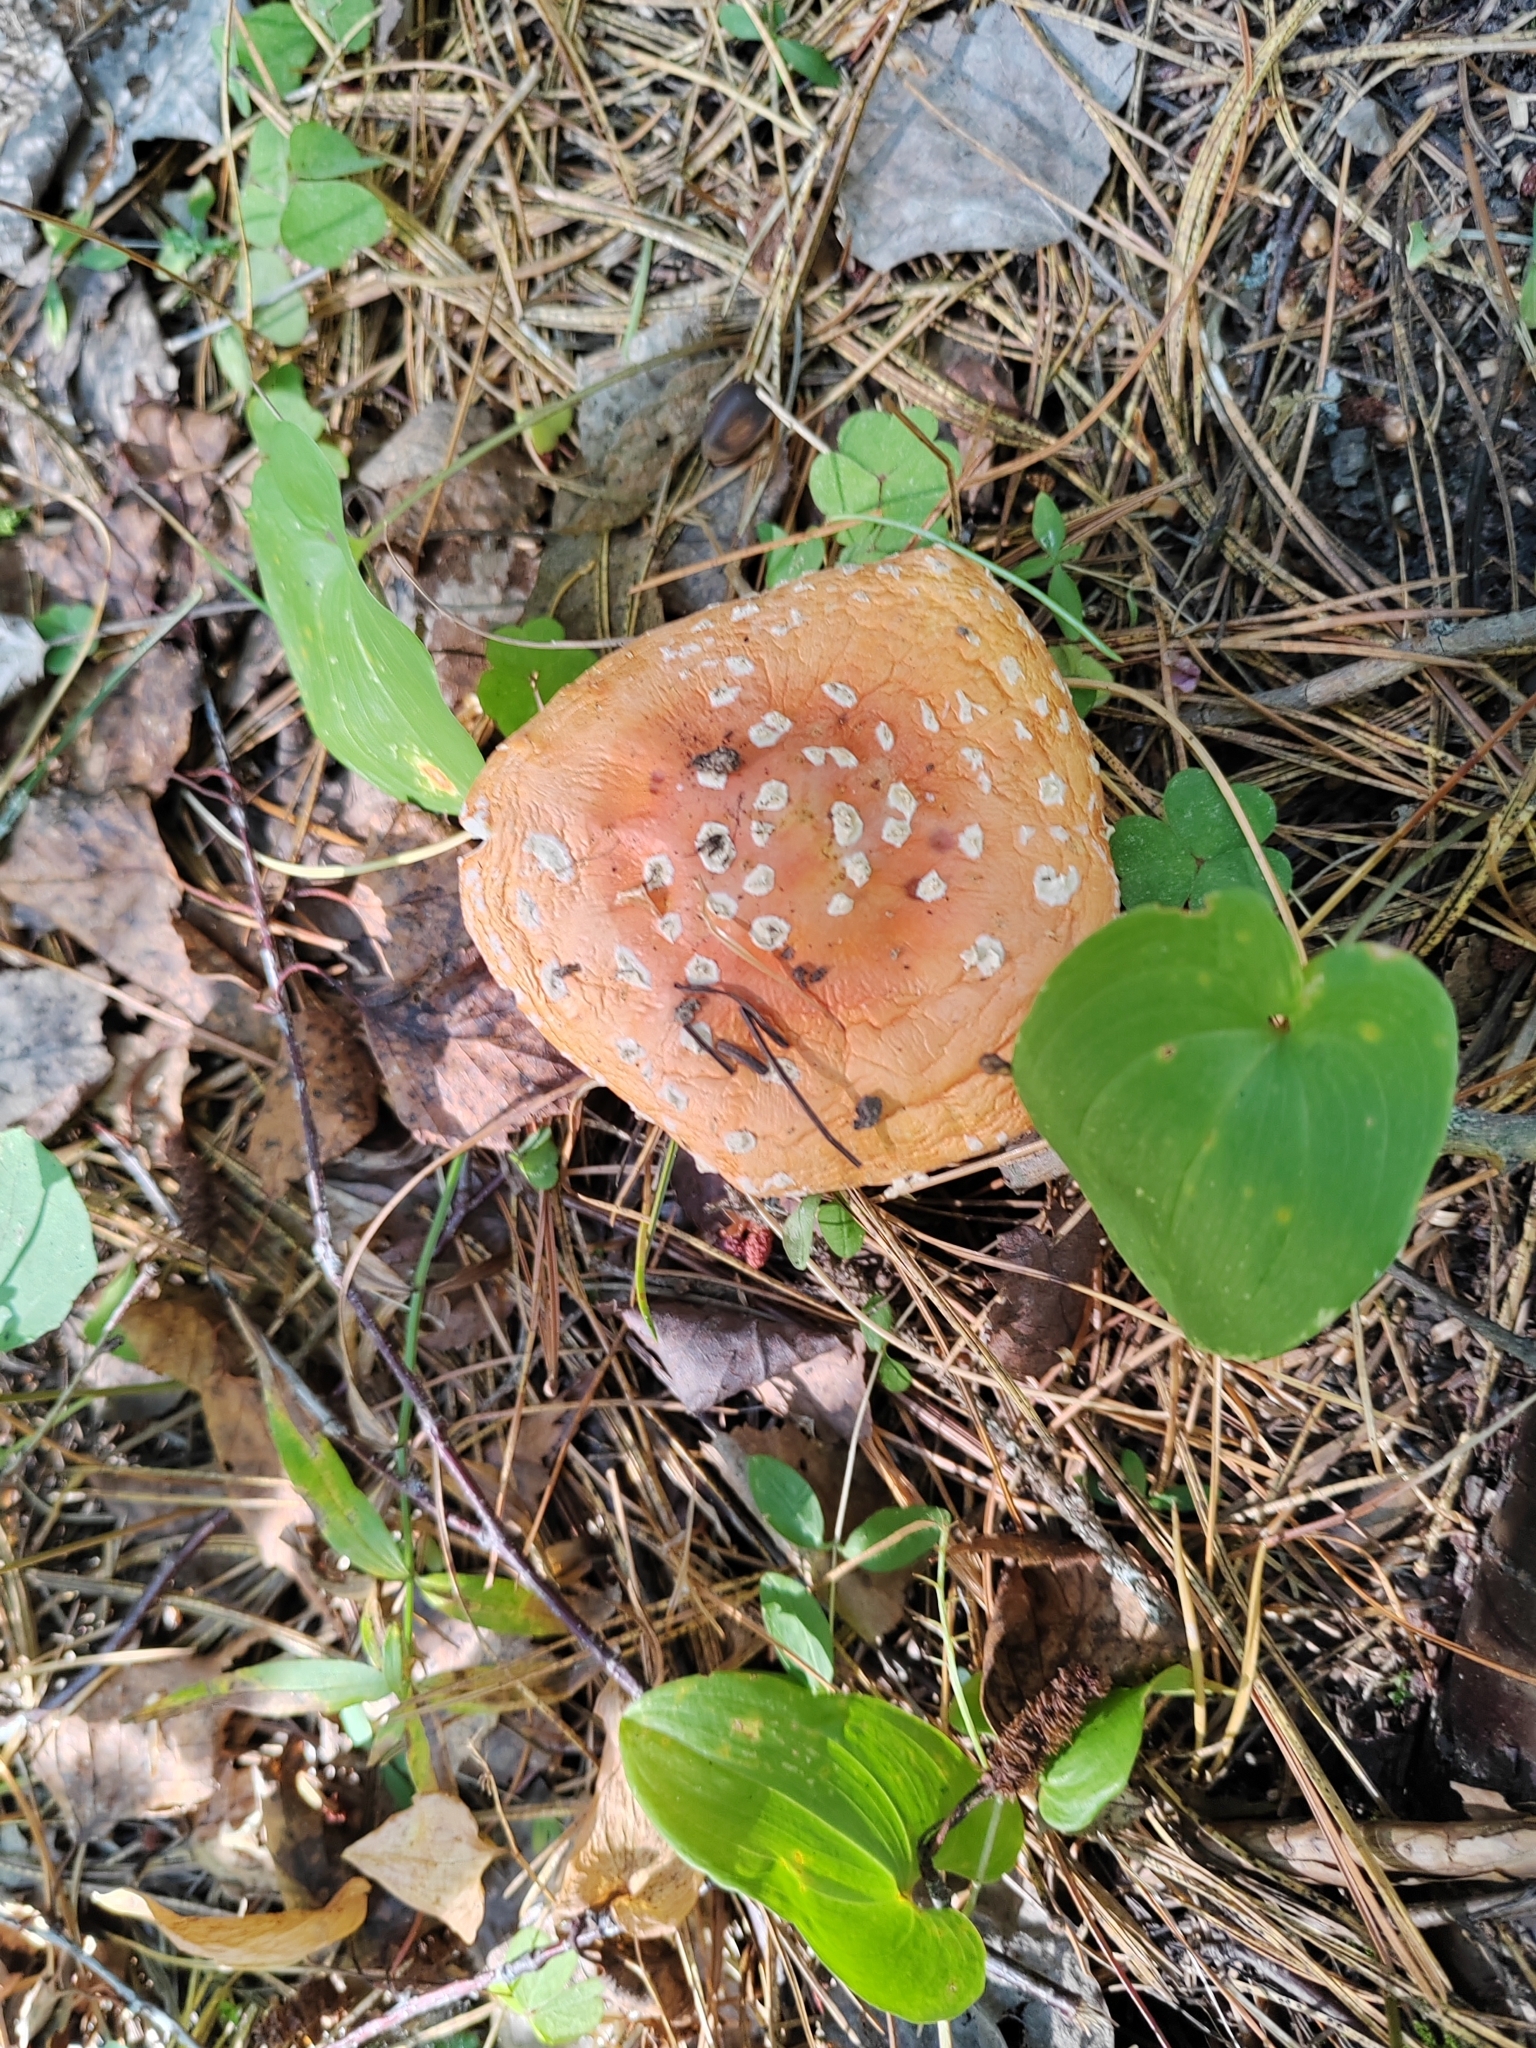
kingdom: Fungi
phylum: Basidiomycota
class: Agaricomycetes
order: Agaricales
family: Amanitaceae
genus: Amanita
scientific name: Amanita muscaria
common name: Fly agaric
